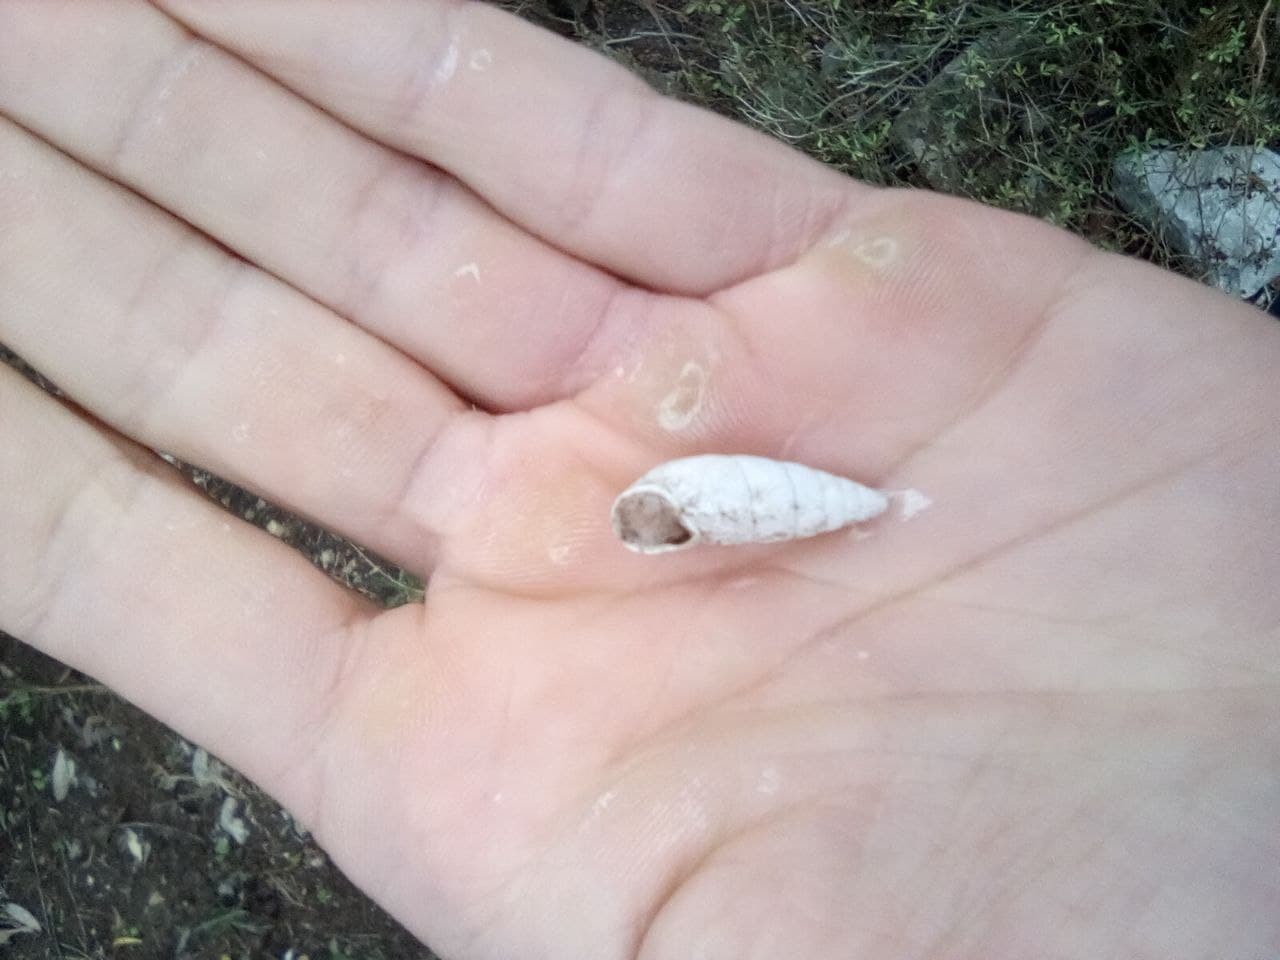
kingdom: Animalia
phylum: Mollusca
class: Gastropoda
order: Stylommatophora
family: Enidae
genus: Brephulopsis
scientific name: Brephulopsis cylindrica
